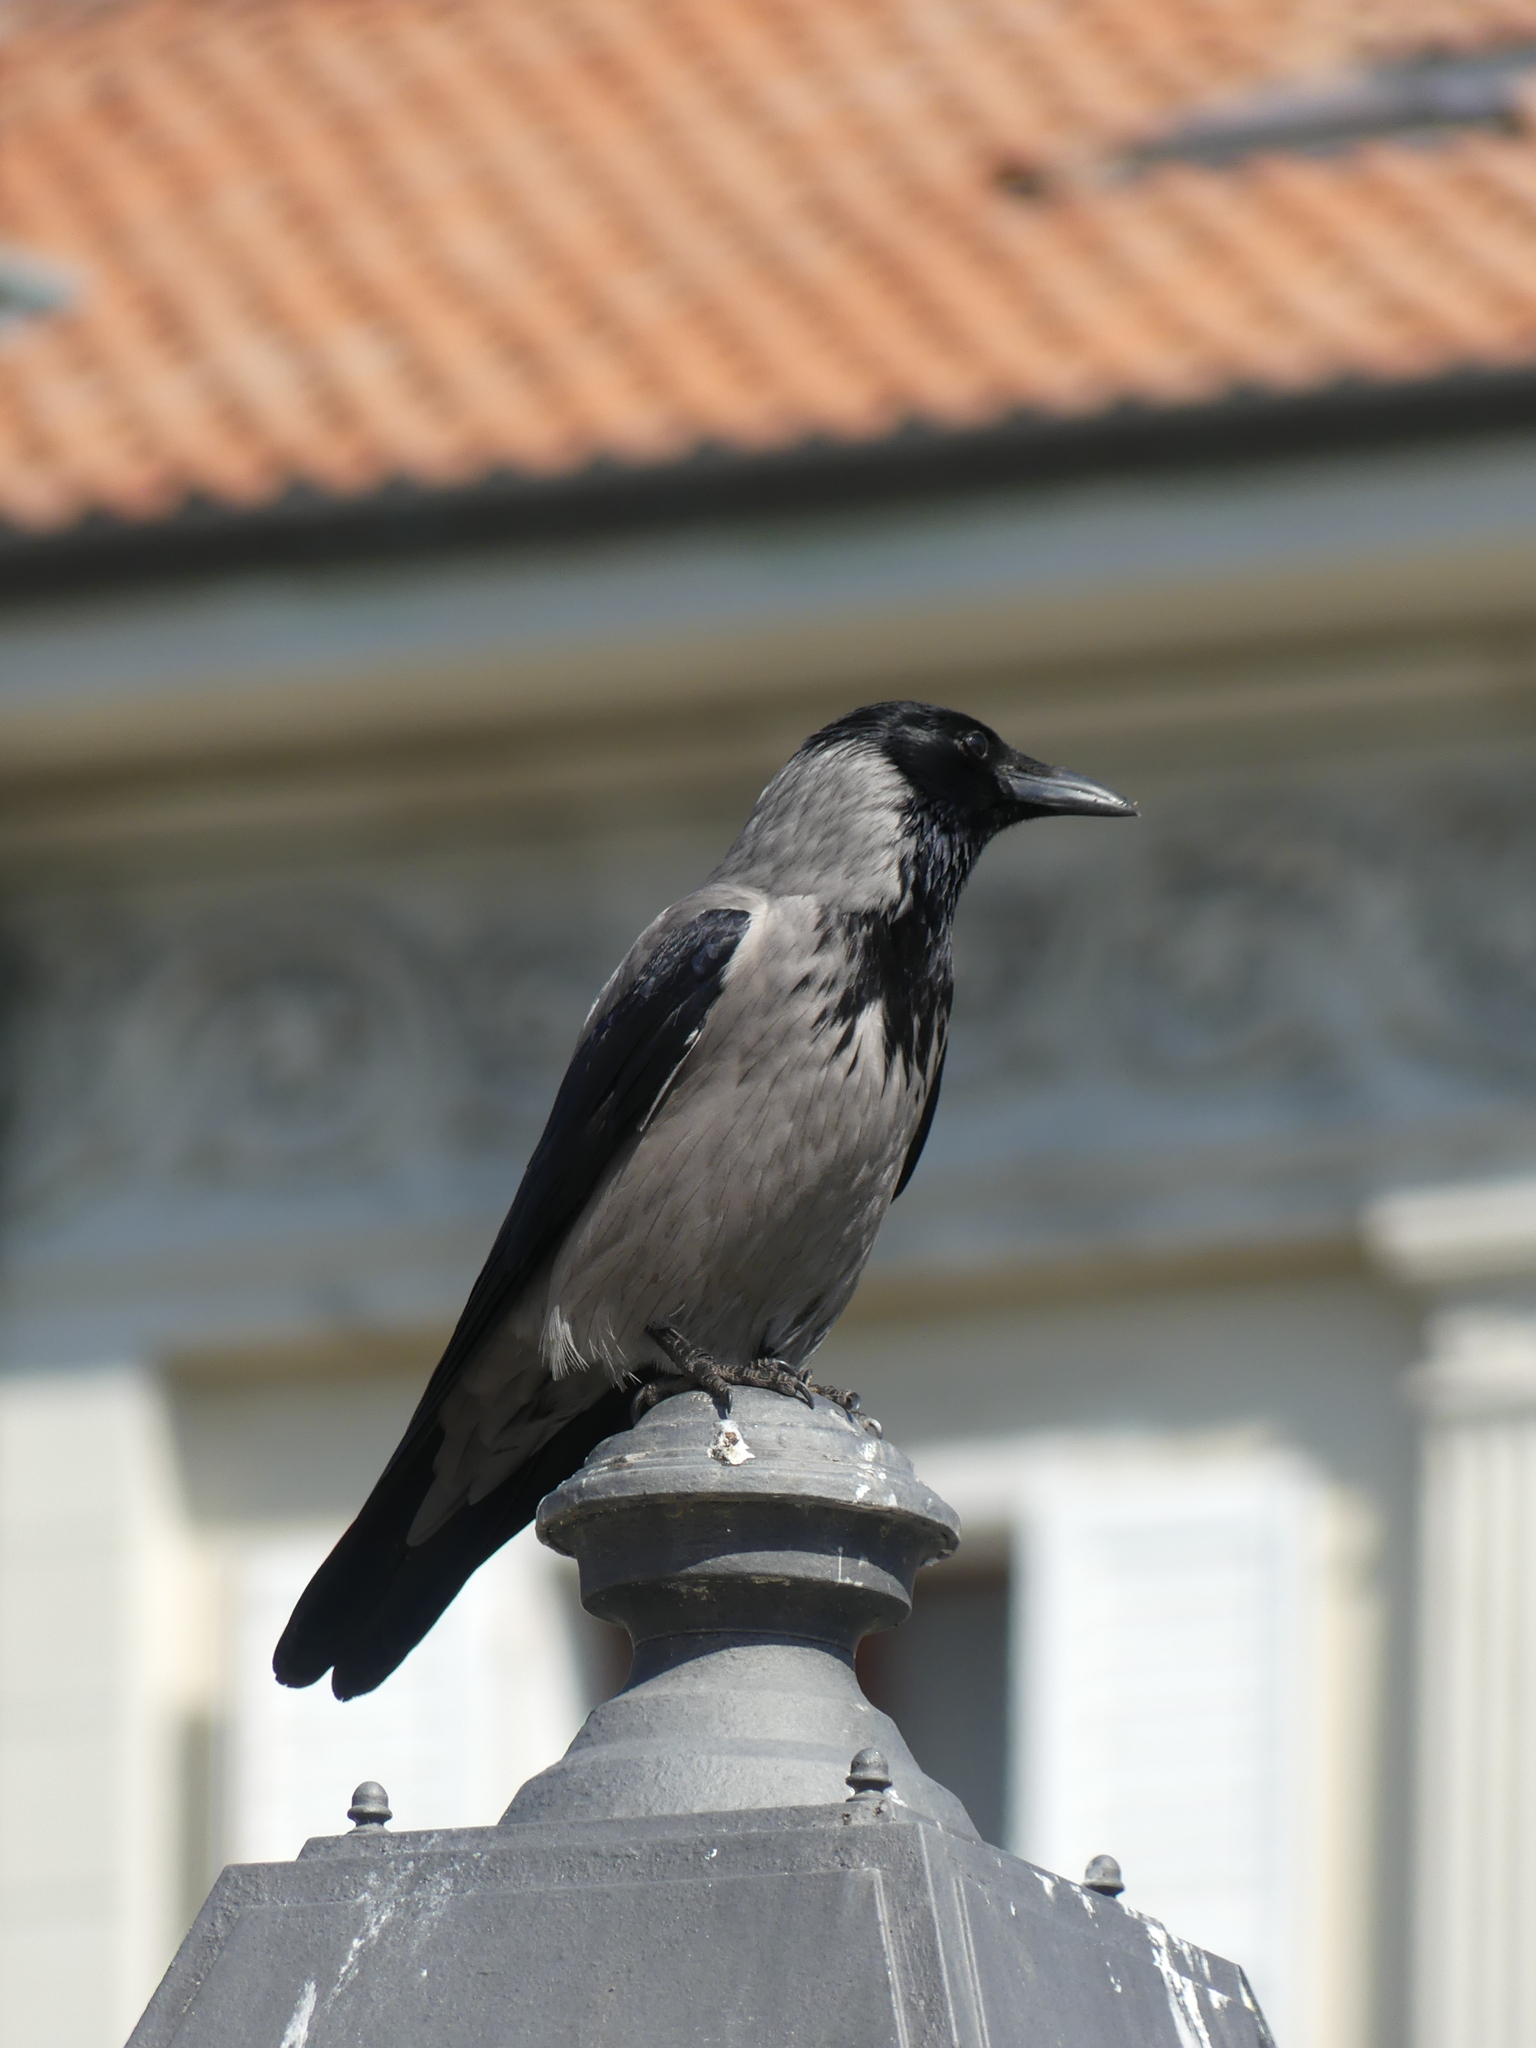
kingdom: Animalia
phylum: Chordata
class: Aves
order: Passeriformes
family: Corvidae
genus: Corvus
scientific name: Corvus cornix
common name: Hooded crow
